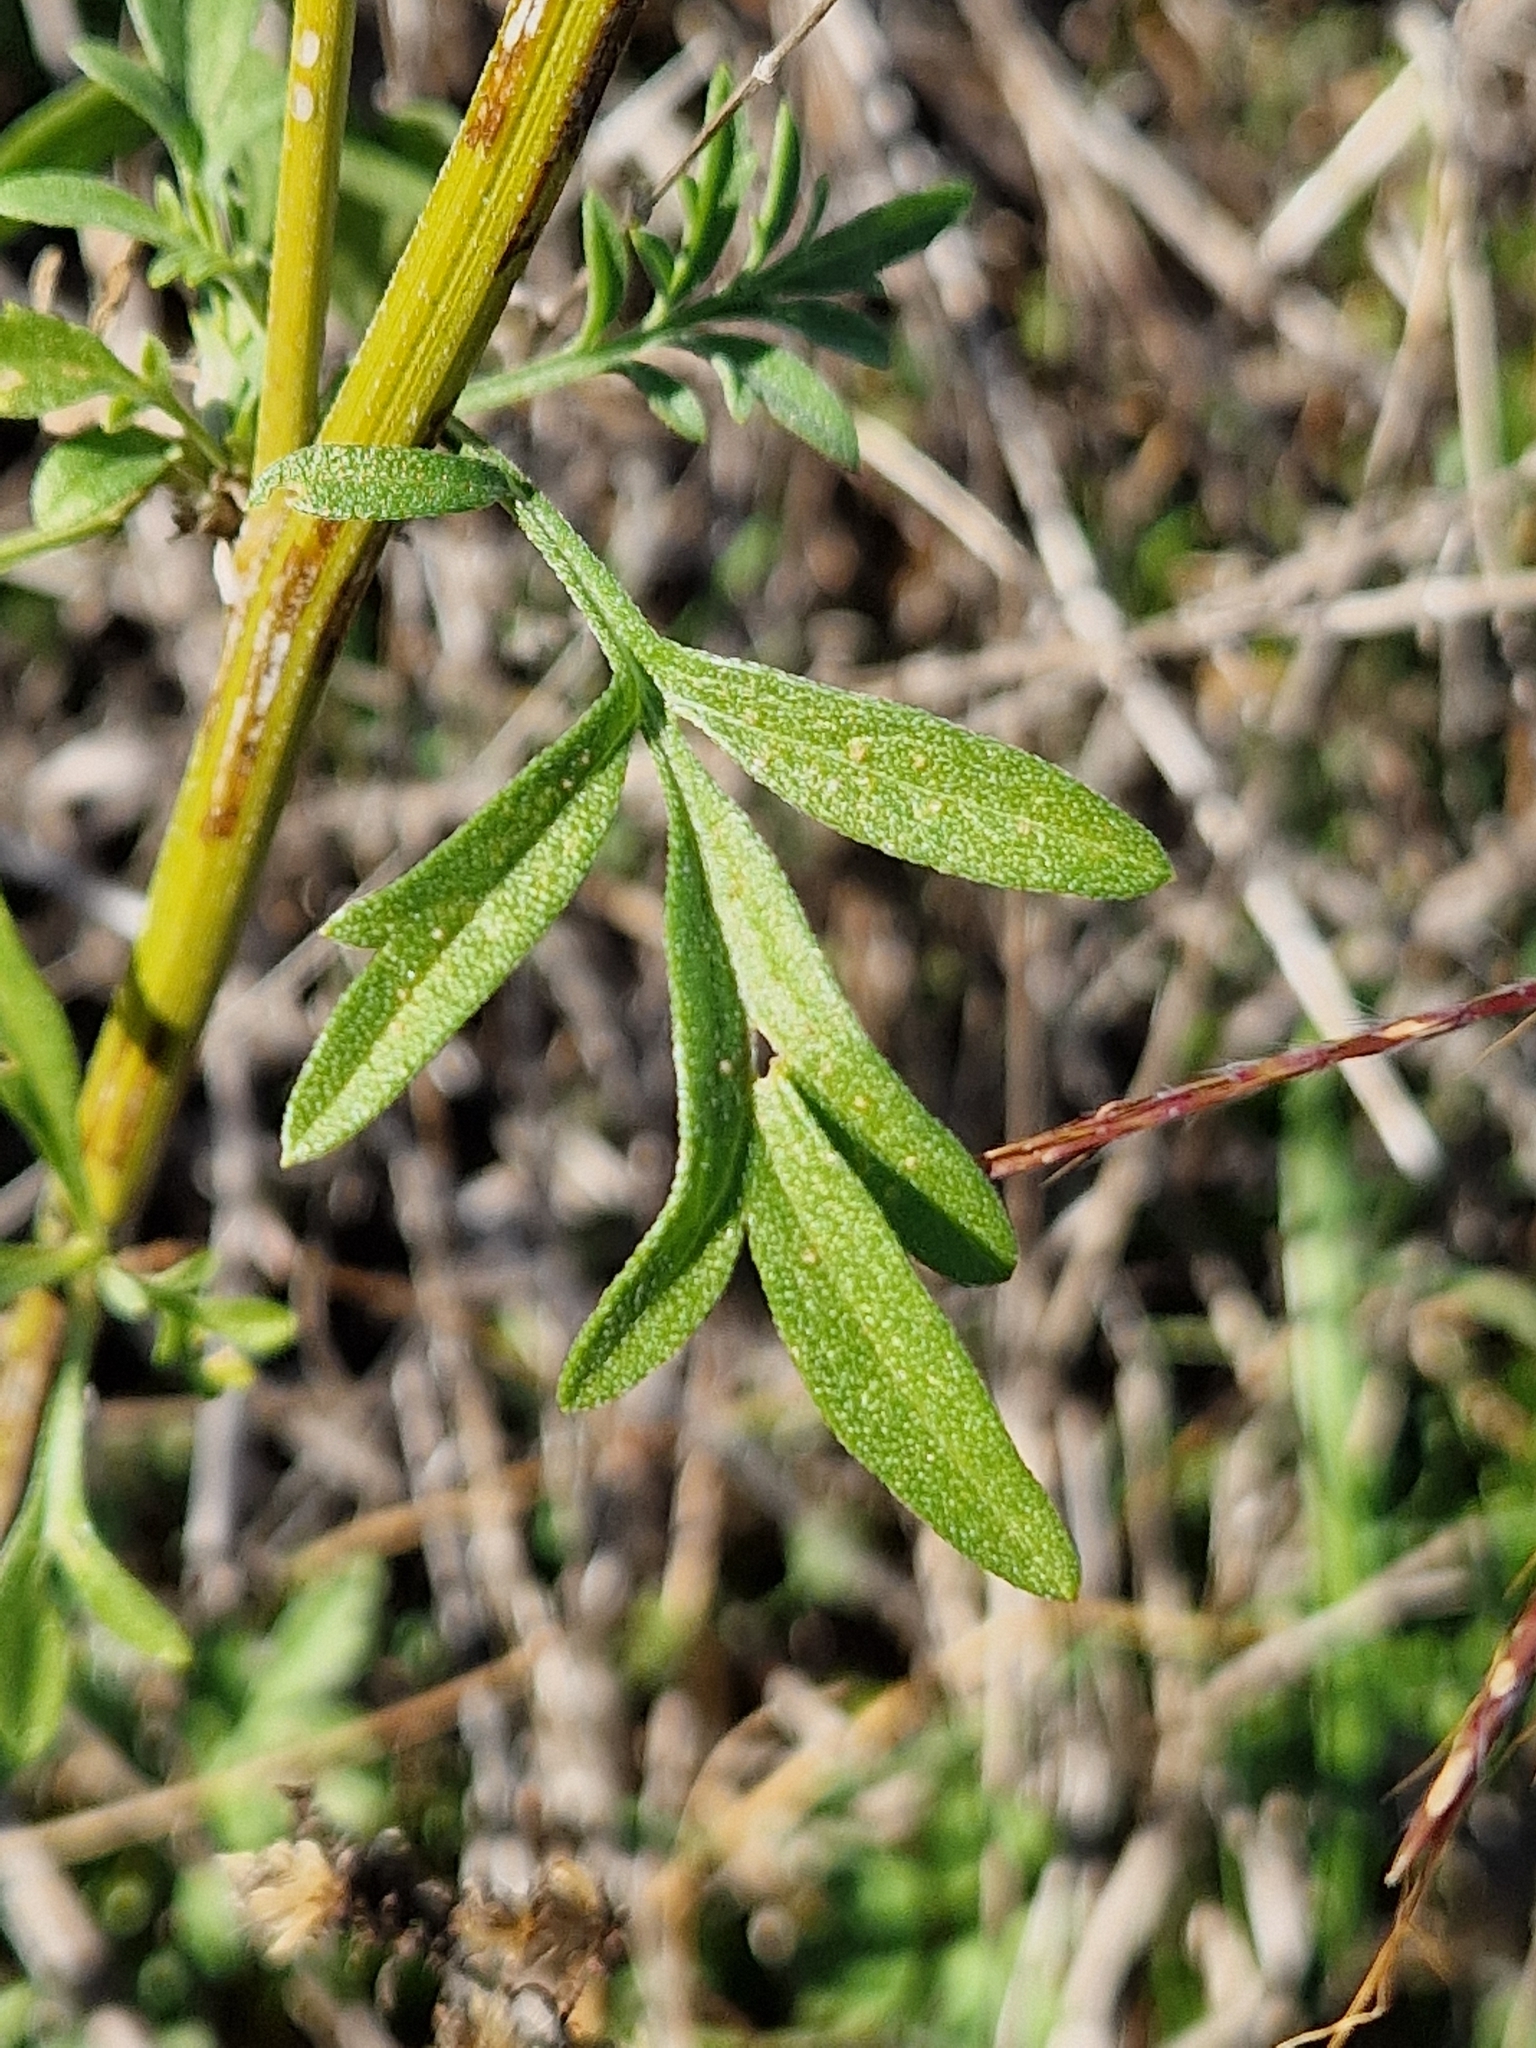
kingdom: Plantae
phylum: Tracheophyta
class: Magnoliopsida
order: Asterales
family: Asteraceae
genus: Ratibida
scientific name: Ratibida columnifera
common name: Prairie coneflower
